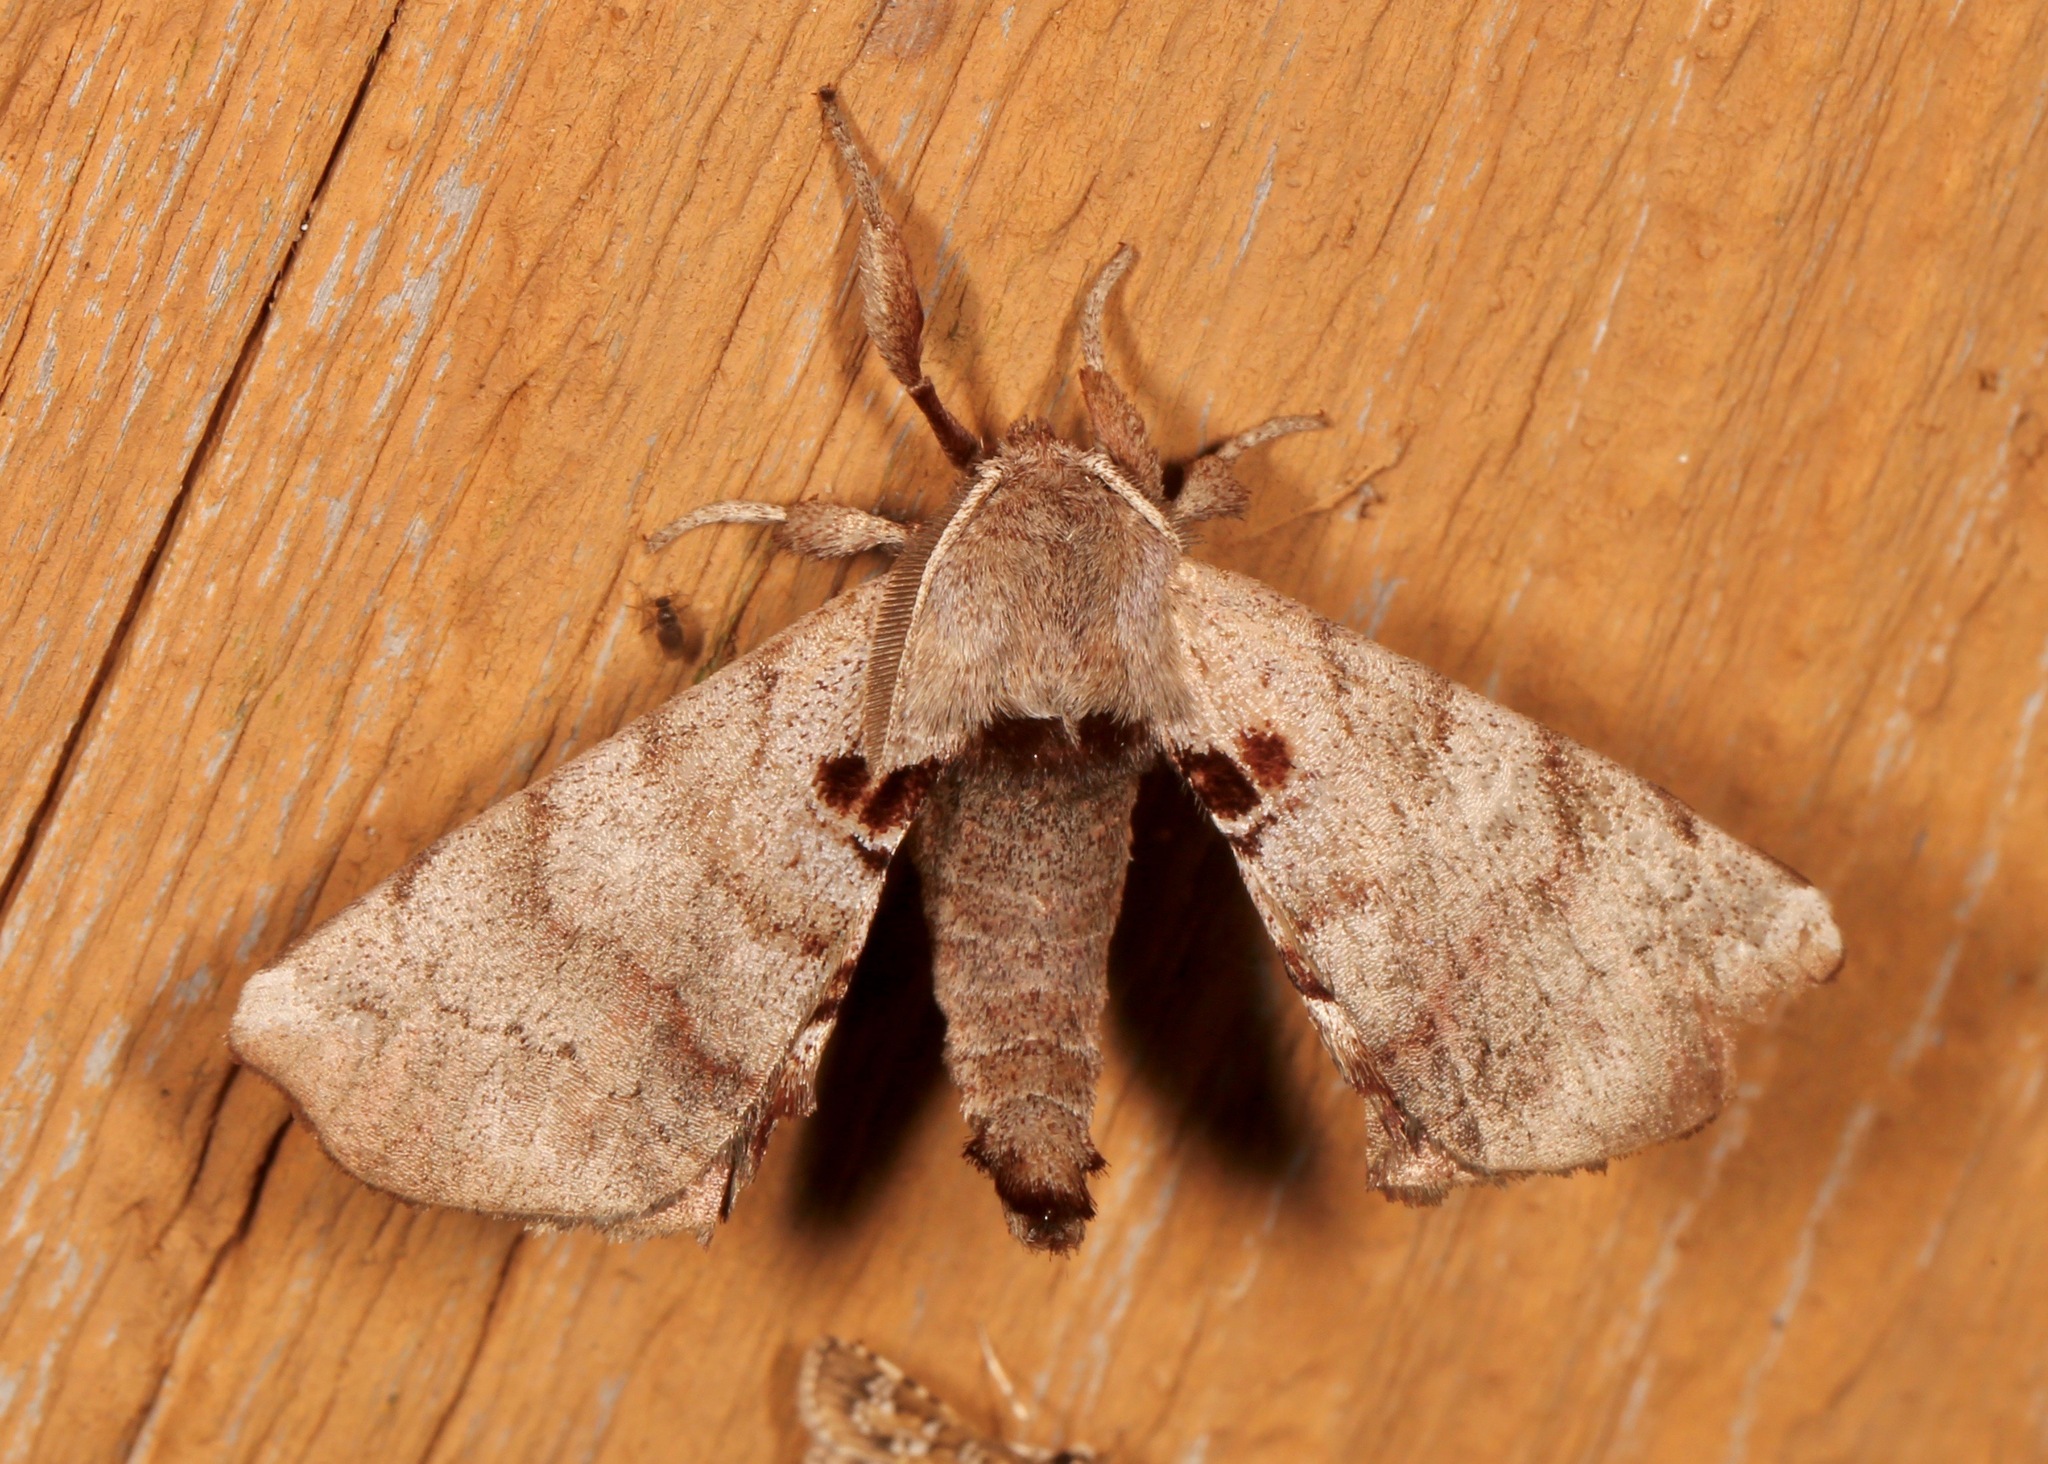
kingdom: Animalia
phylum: Arthropoda
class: Insecta
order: Lepidoptera
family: Apatelodidae
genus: Hygrochroa
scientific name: Hygrochroa Apatelodes torrefacta
